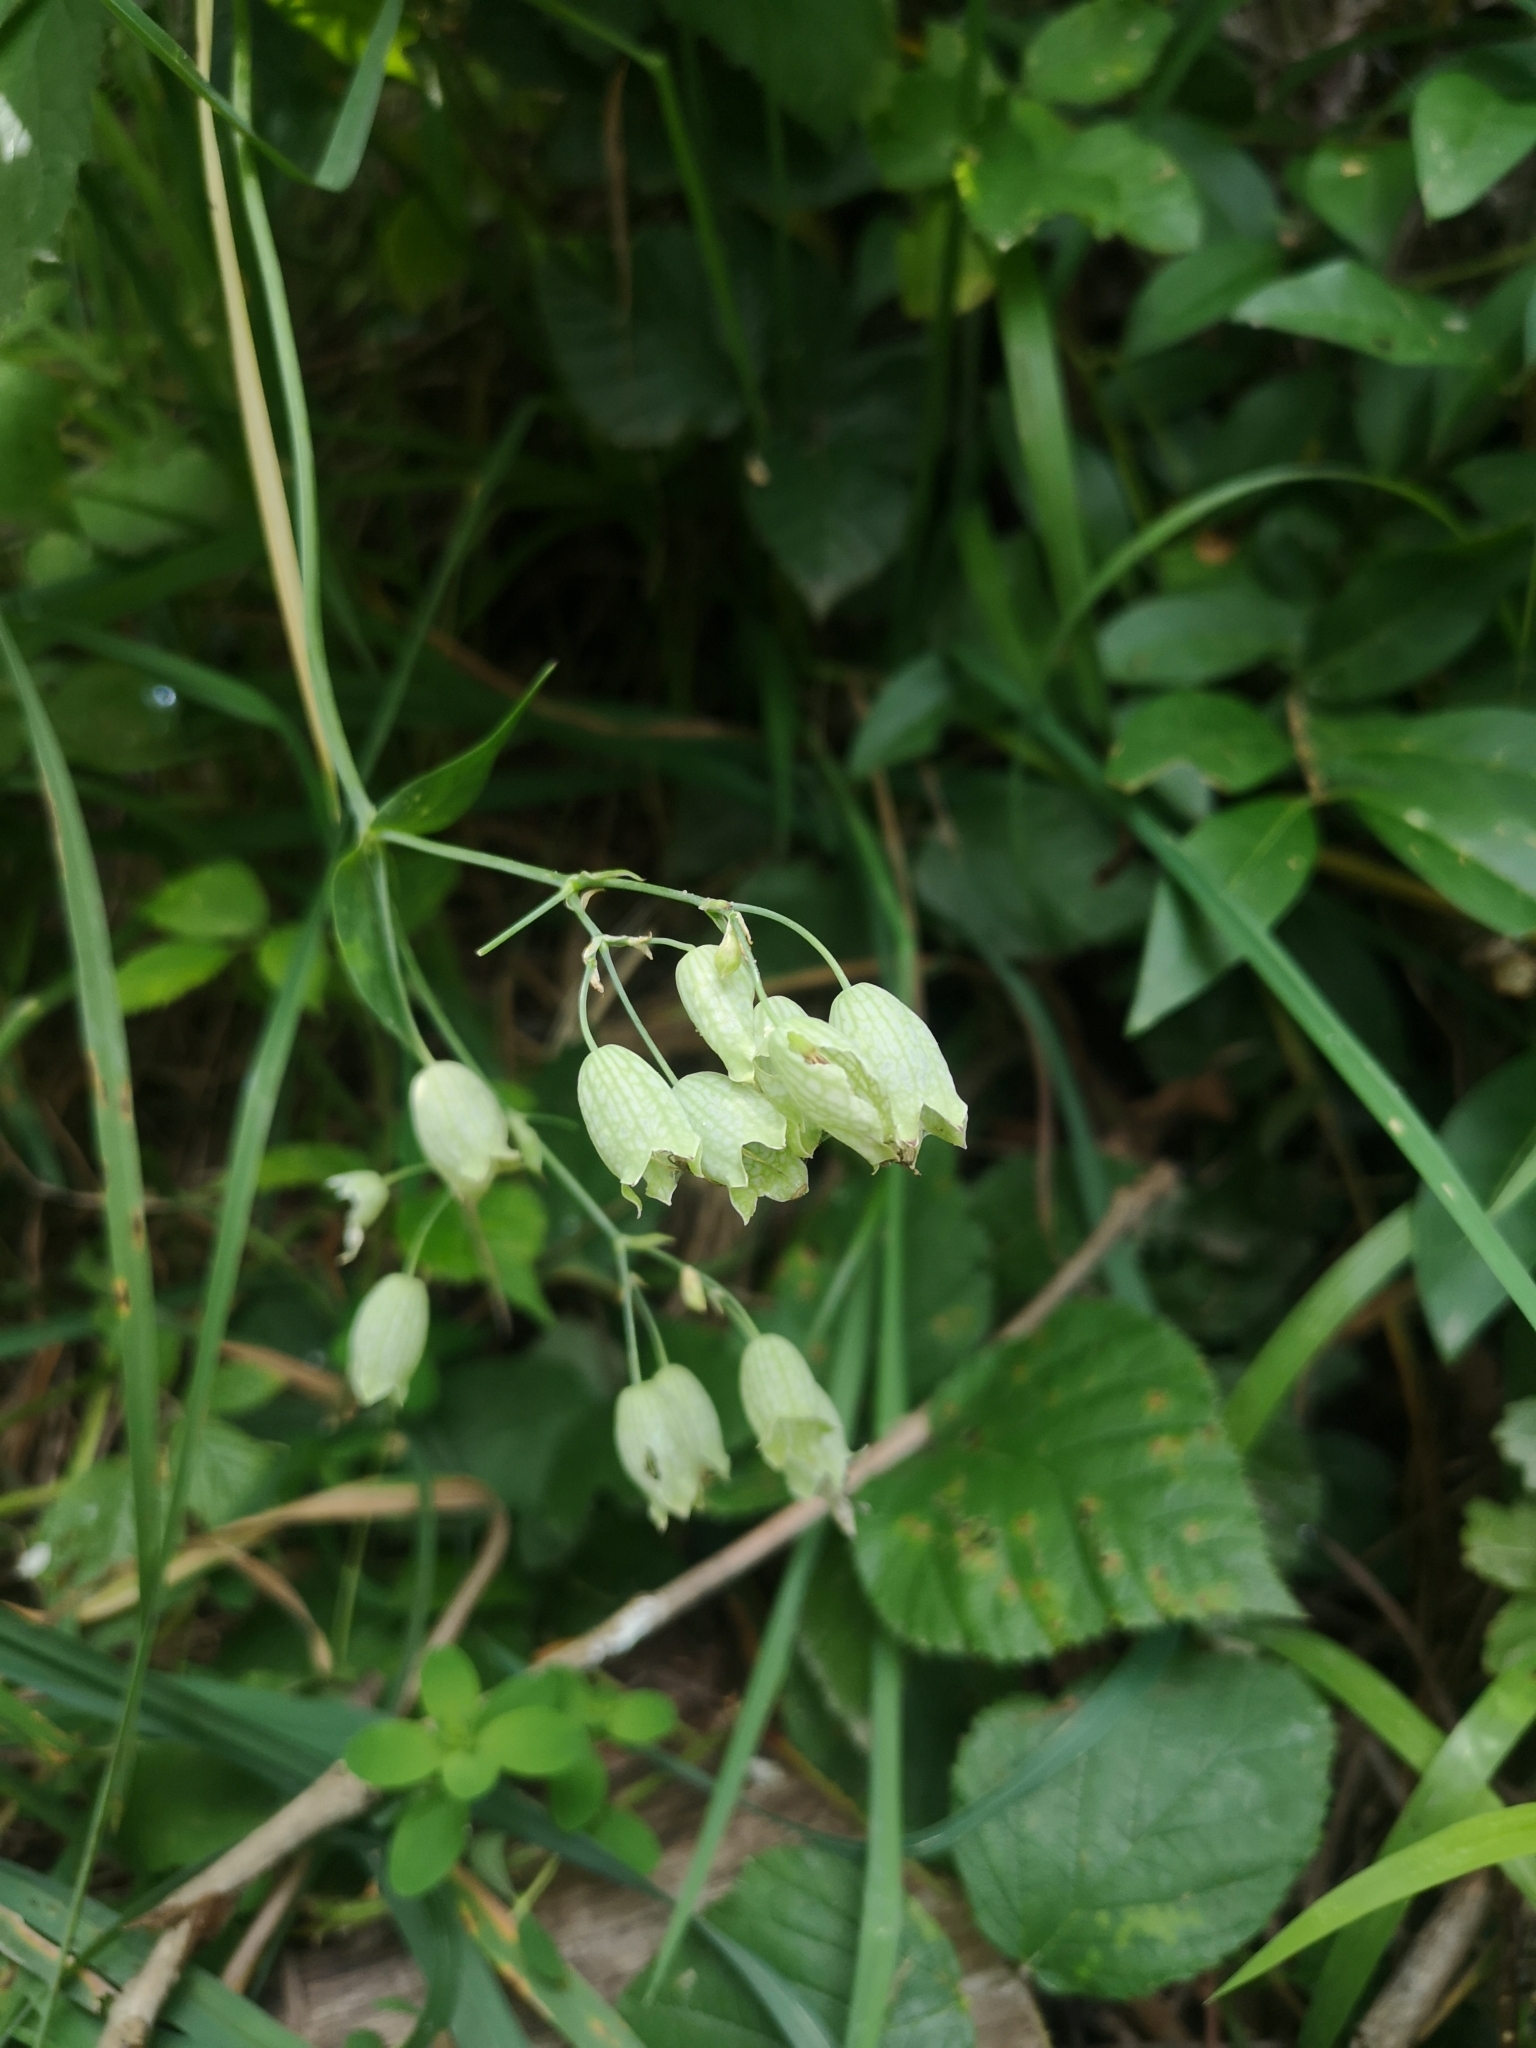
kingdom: Plantae
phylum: Tracheophyta
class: Magnoliopsida
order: Caryophyllales
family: Caryophyllaceae
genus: Silene
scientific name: Silene vulgaris
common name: Bladder campion
